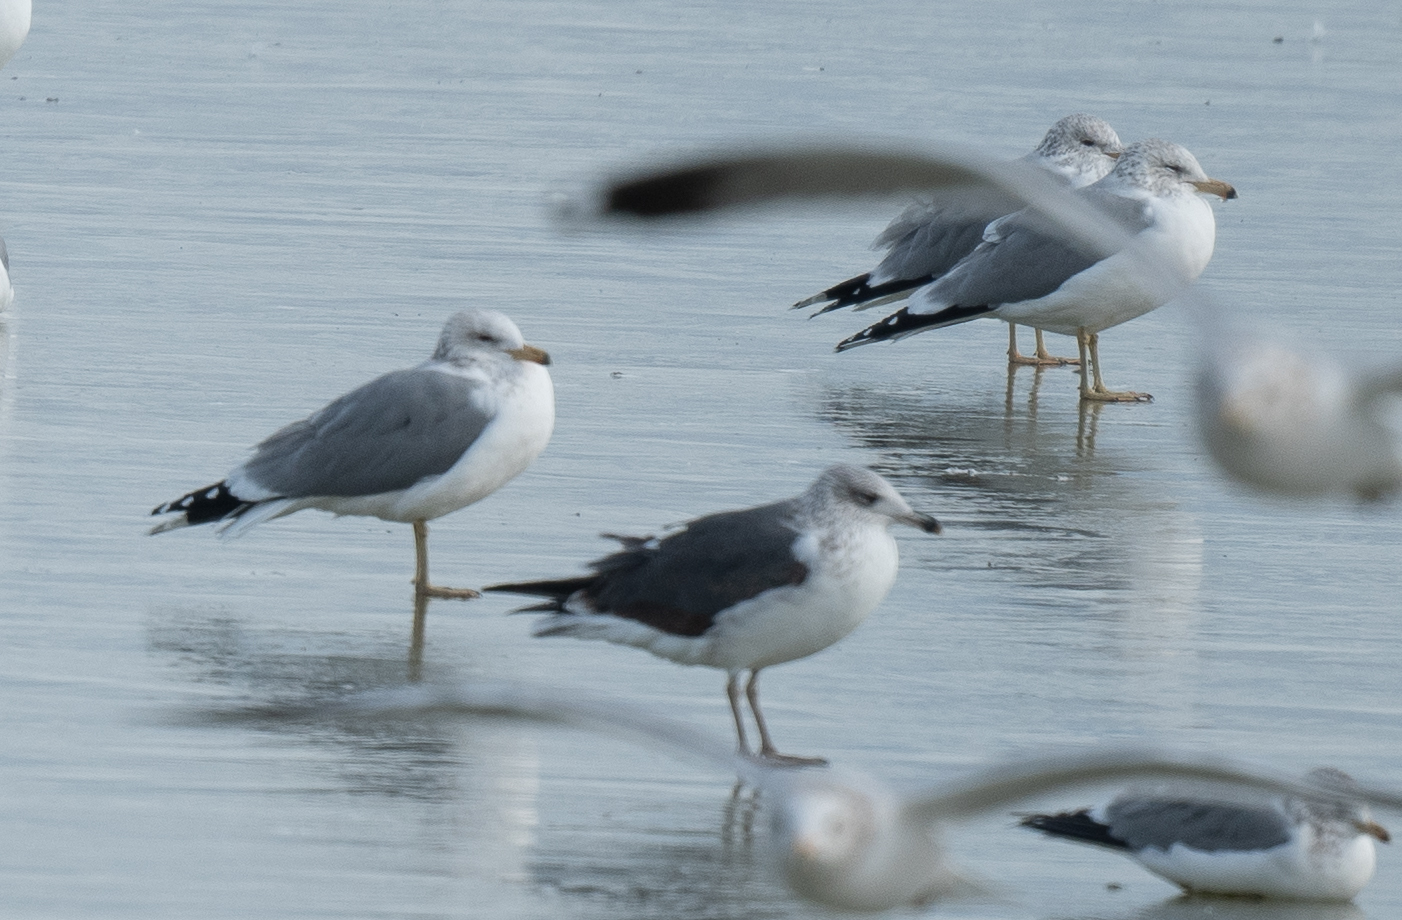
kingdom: Animalia
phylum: Chordata
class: Aves
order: Charadriiformes
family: Laridae
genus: Larus
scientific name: Larus fuscus
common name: Lesser black-backed gull
